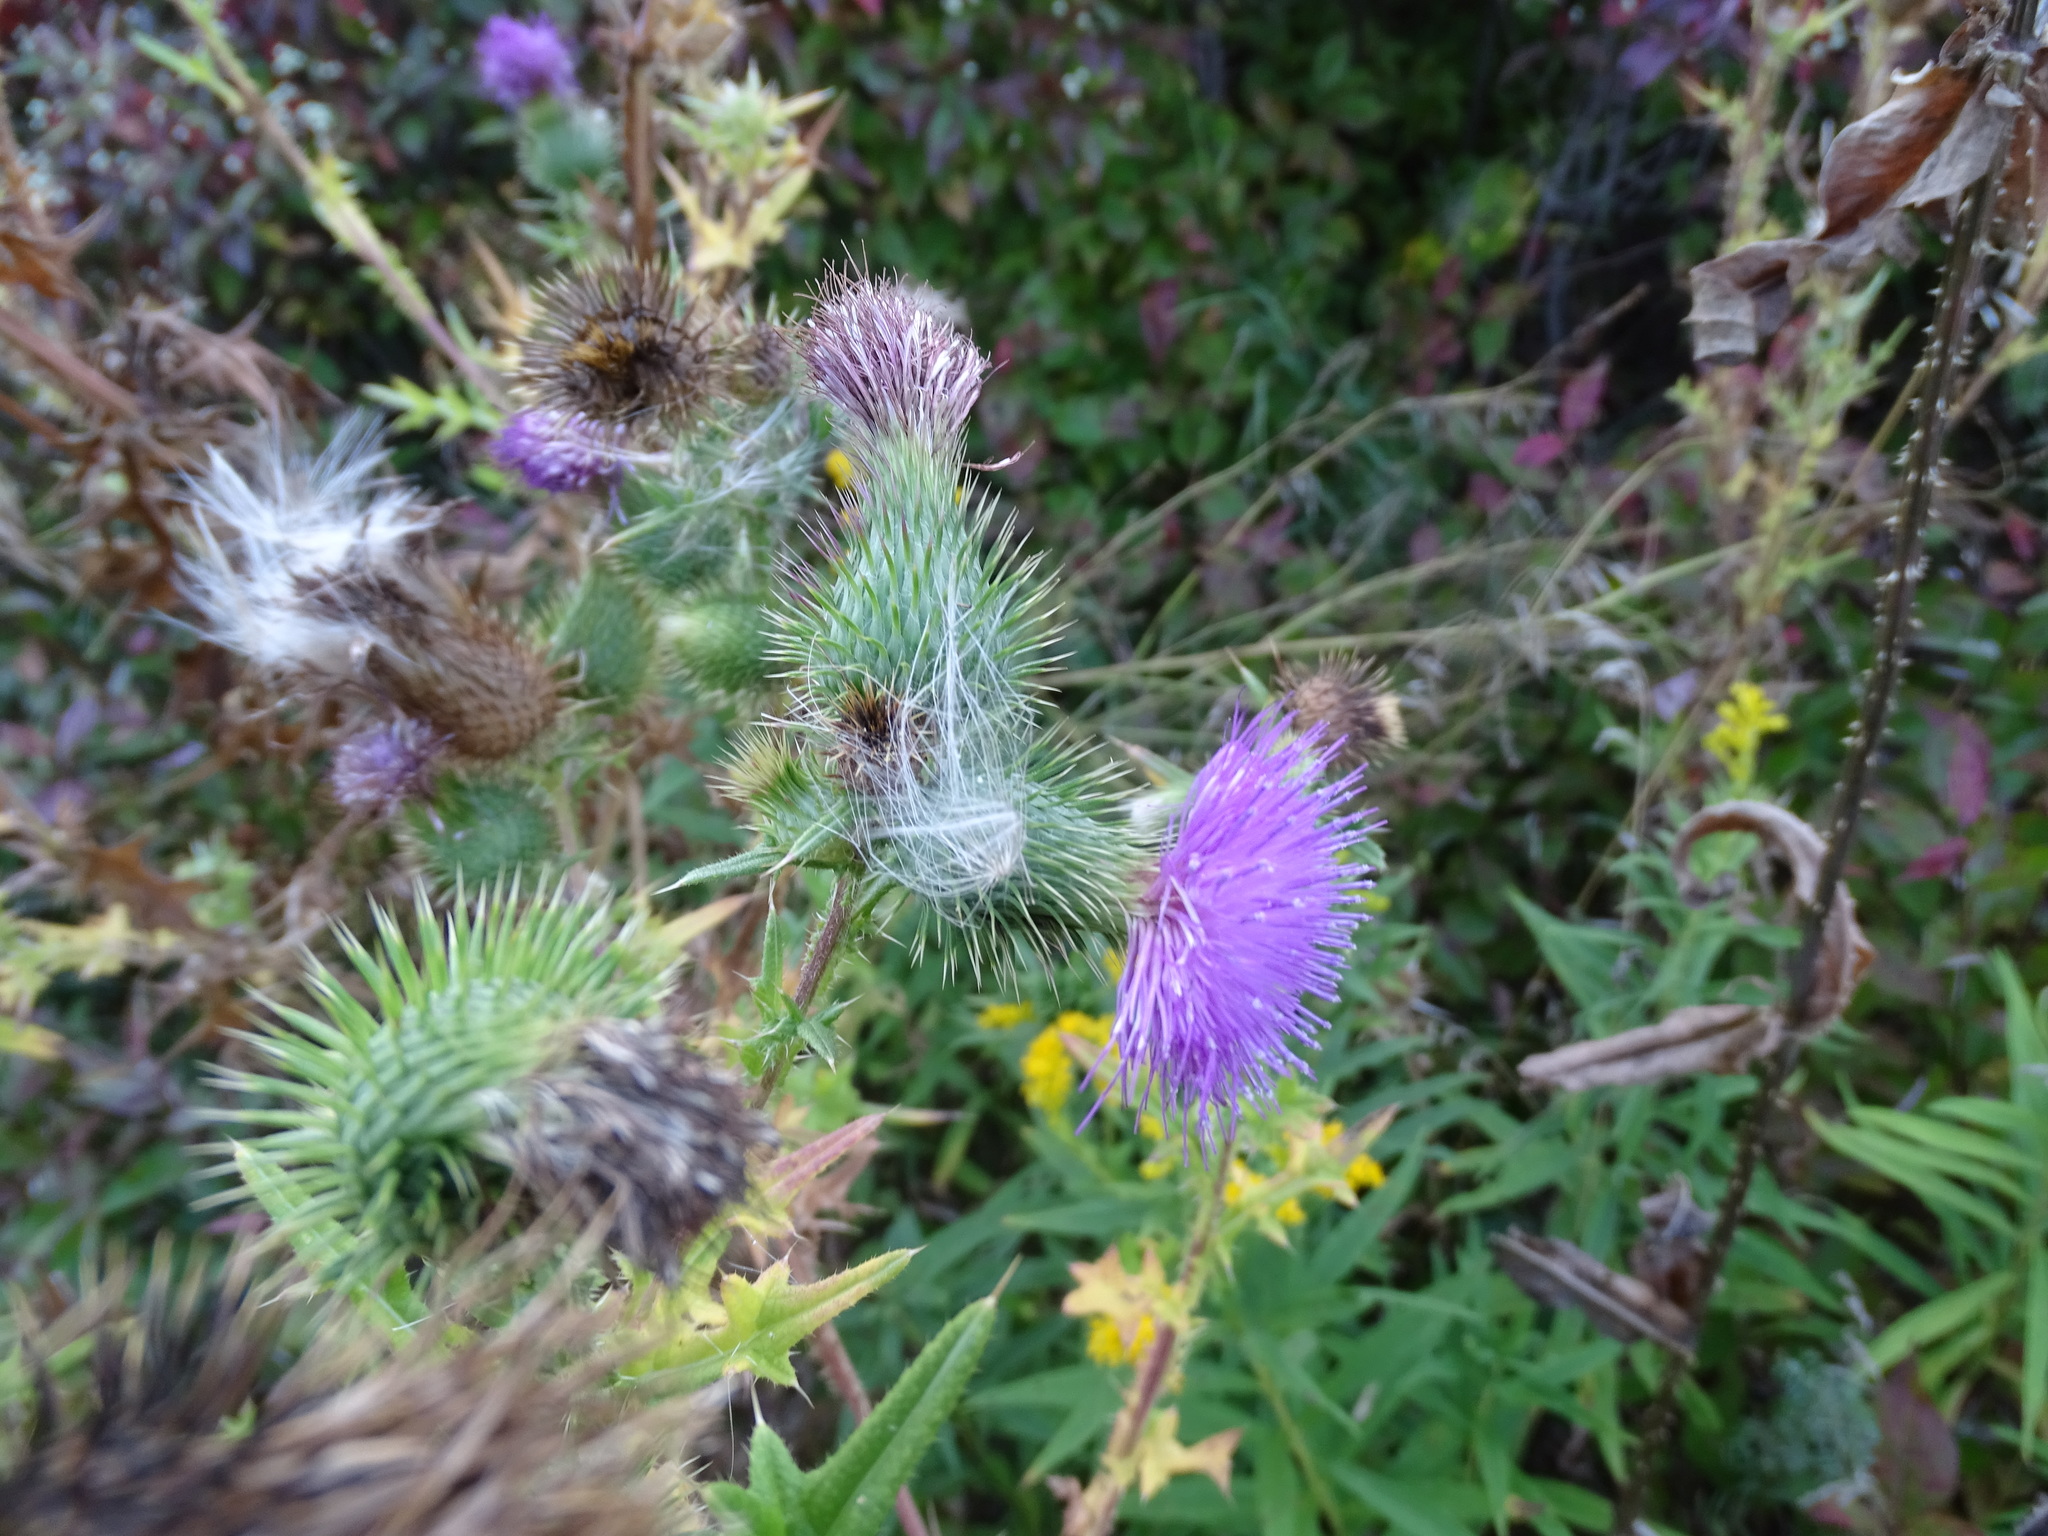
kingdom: Plantae
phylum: Tracheophyta
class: Magnoliopsida
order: Asterales
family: Asteraceae
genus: Cirsium
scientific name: Cirsium vulgare
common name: Bull thistle
